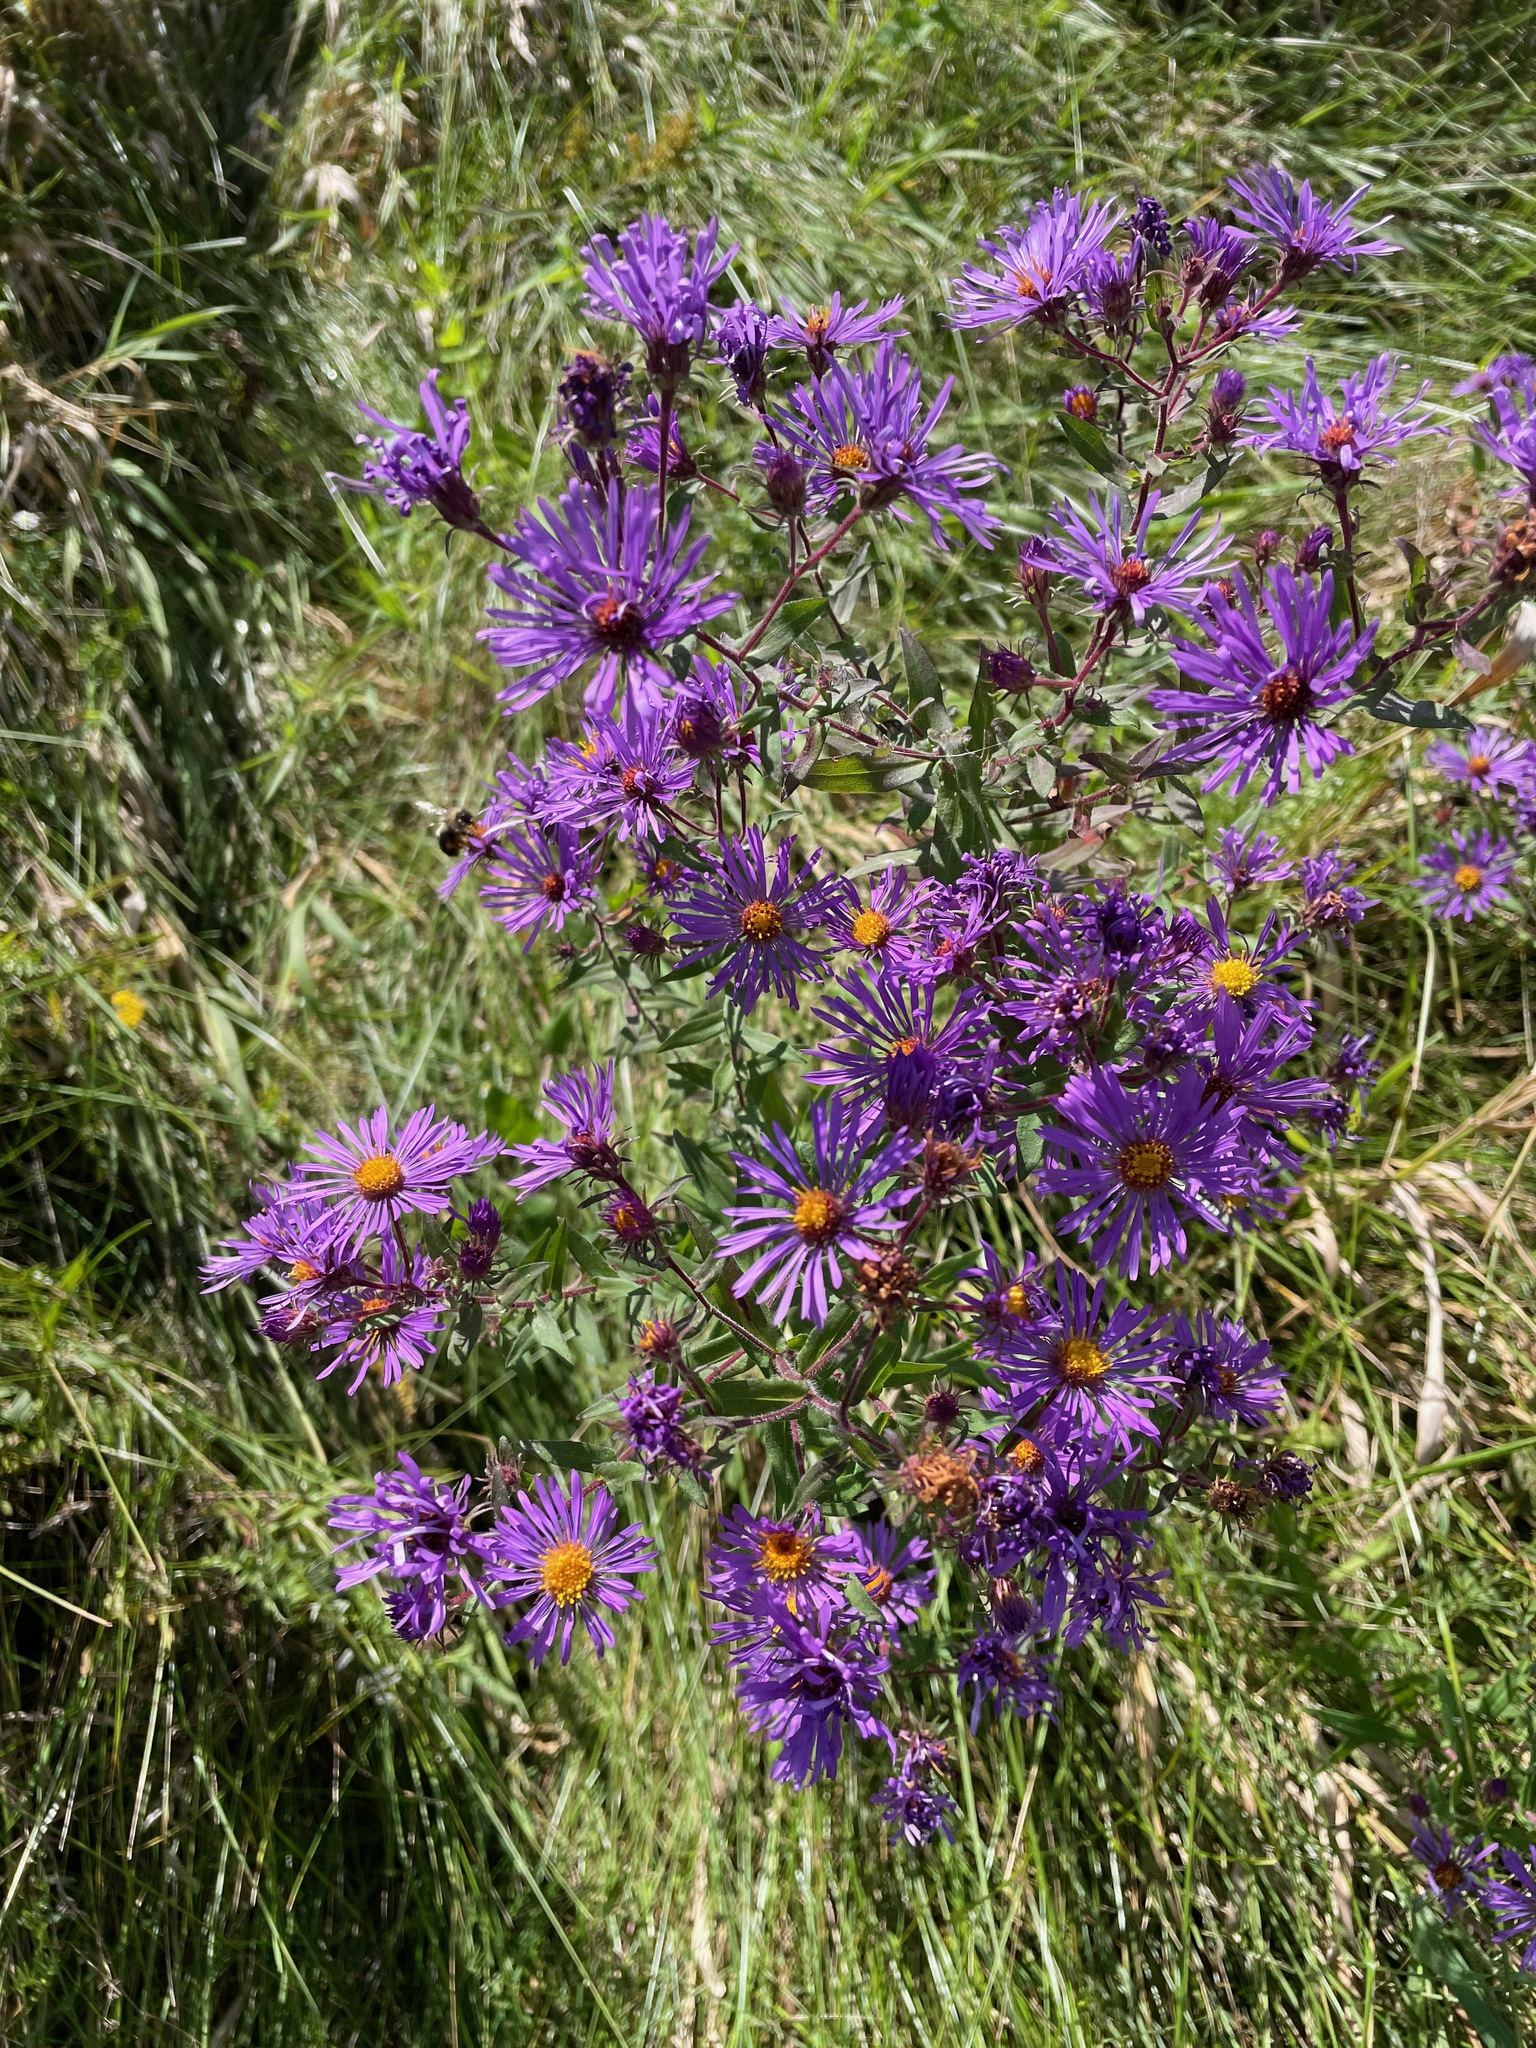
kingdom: Plantae
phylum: Tracheophyta
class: Magnoliopsida
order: Asterales
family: Asteraceae
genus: Symphyotrichum
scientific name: Symphyotrichum novae-angliae
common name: Michaelmas daisy
